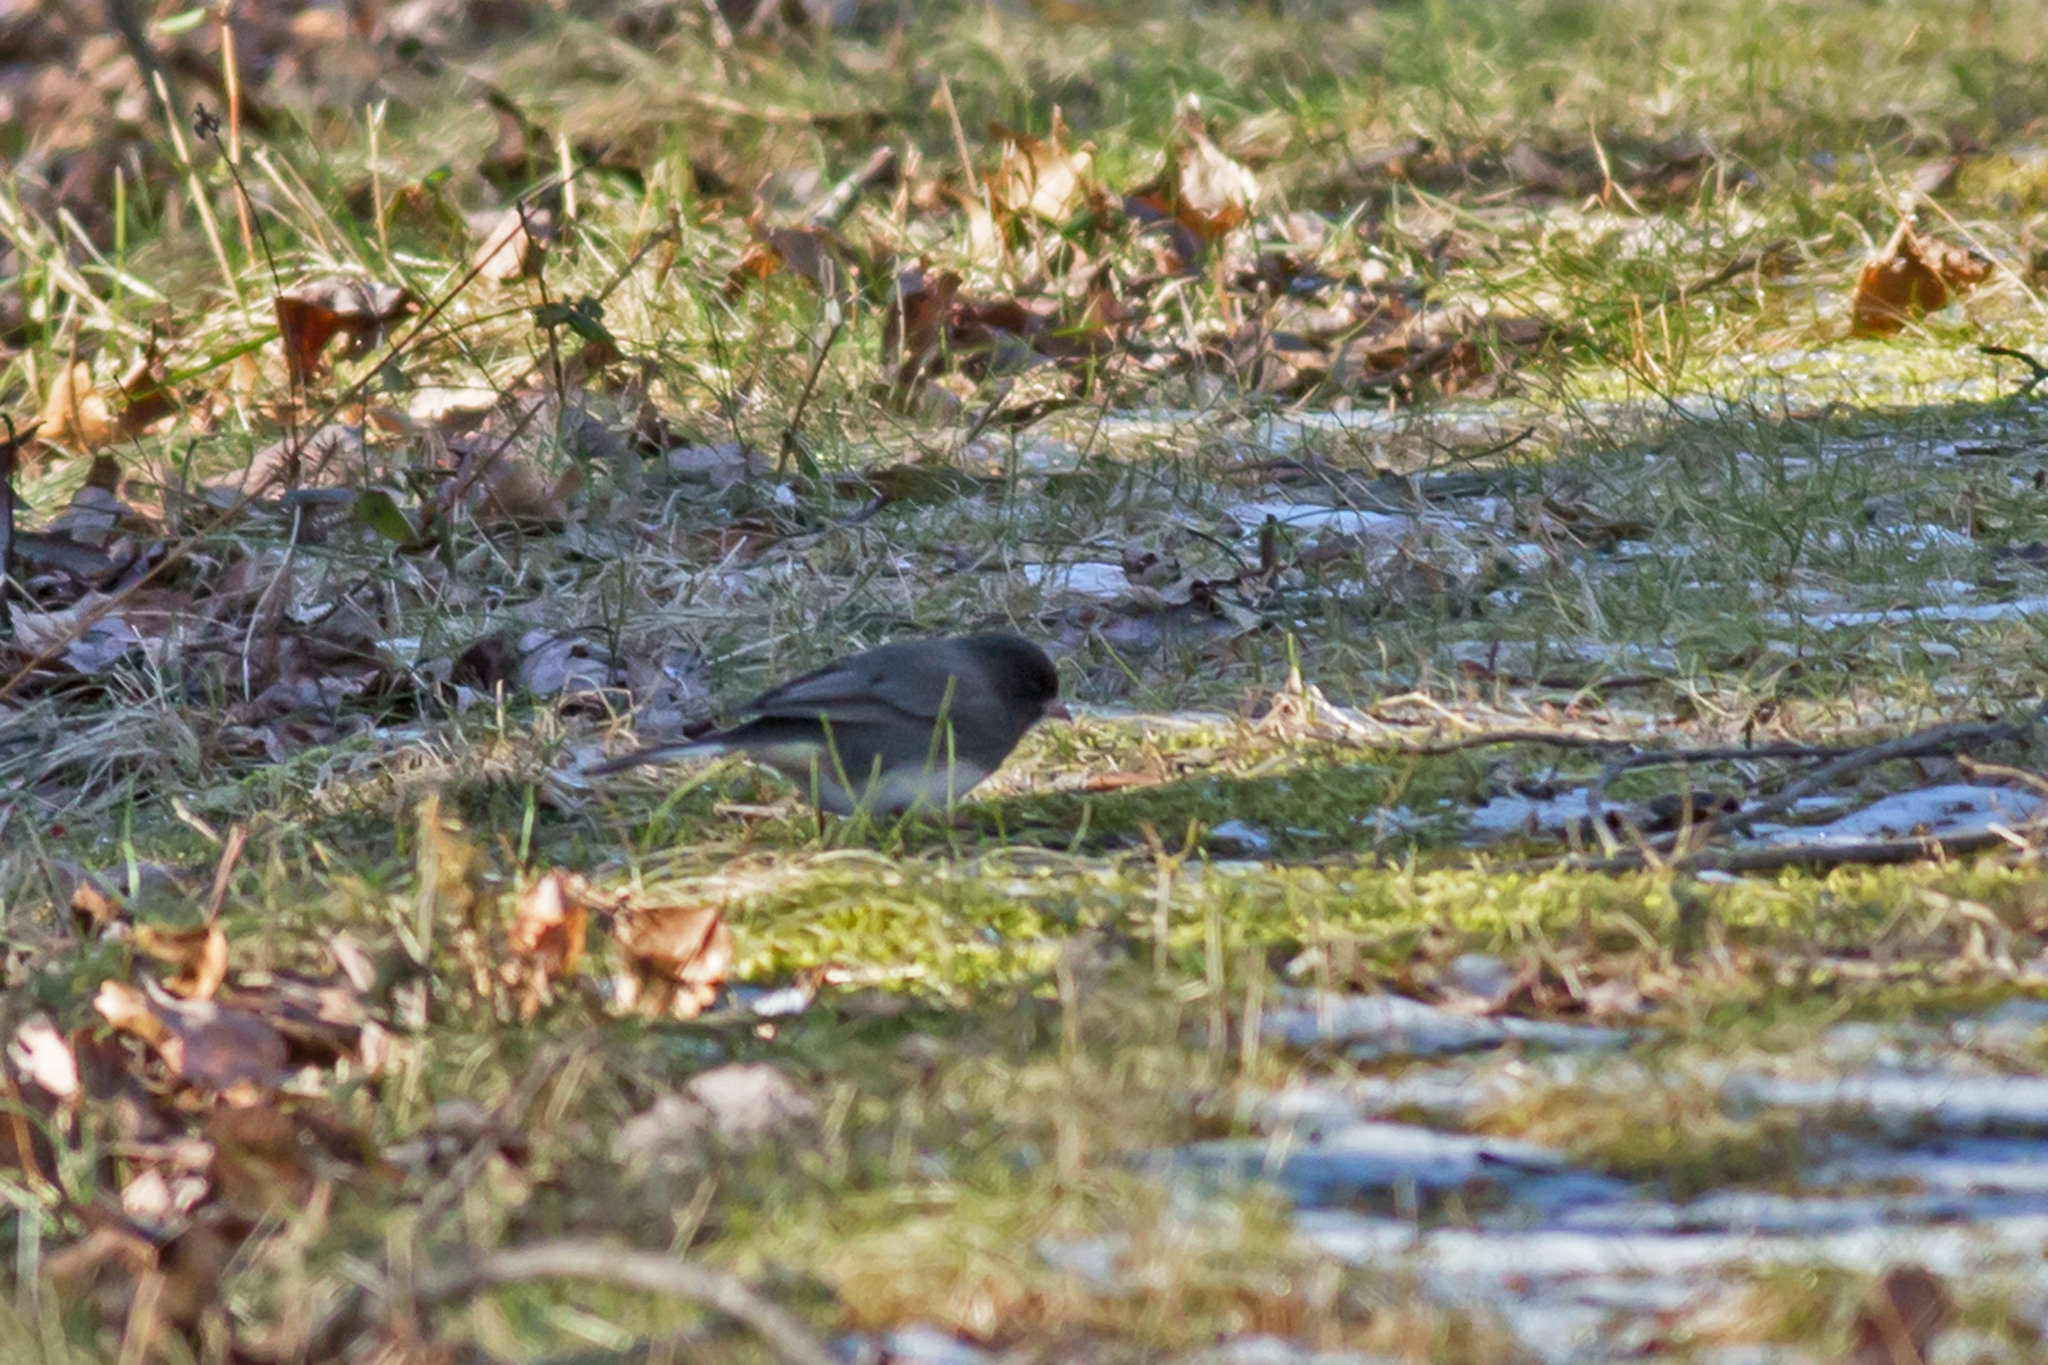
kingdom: Animalia
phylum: Chordata
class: Aves
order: Passeriformes
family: Passerellidae
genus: Junco
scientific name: Junco hyemalis
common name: Dark-eyed junco
